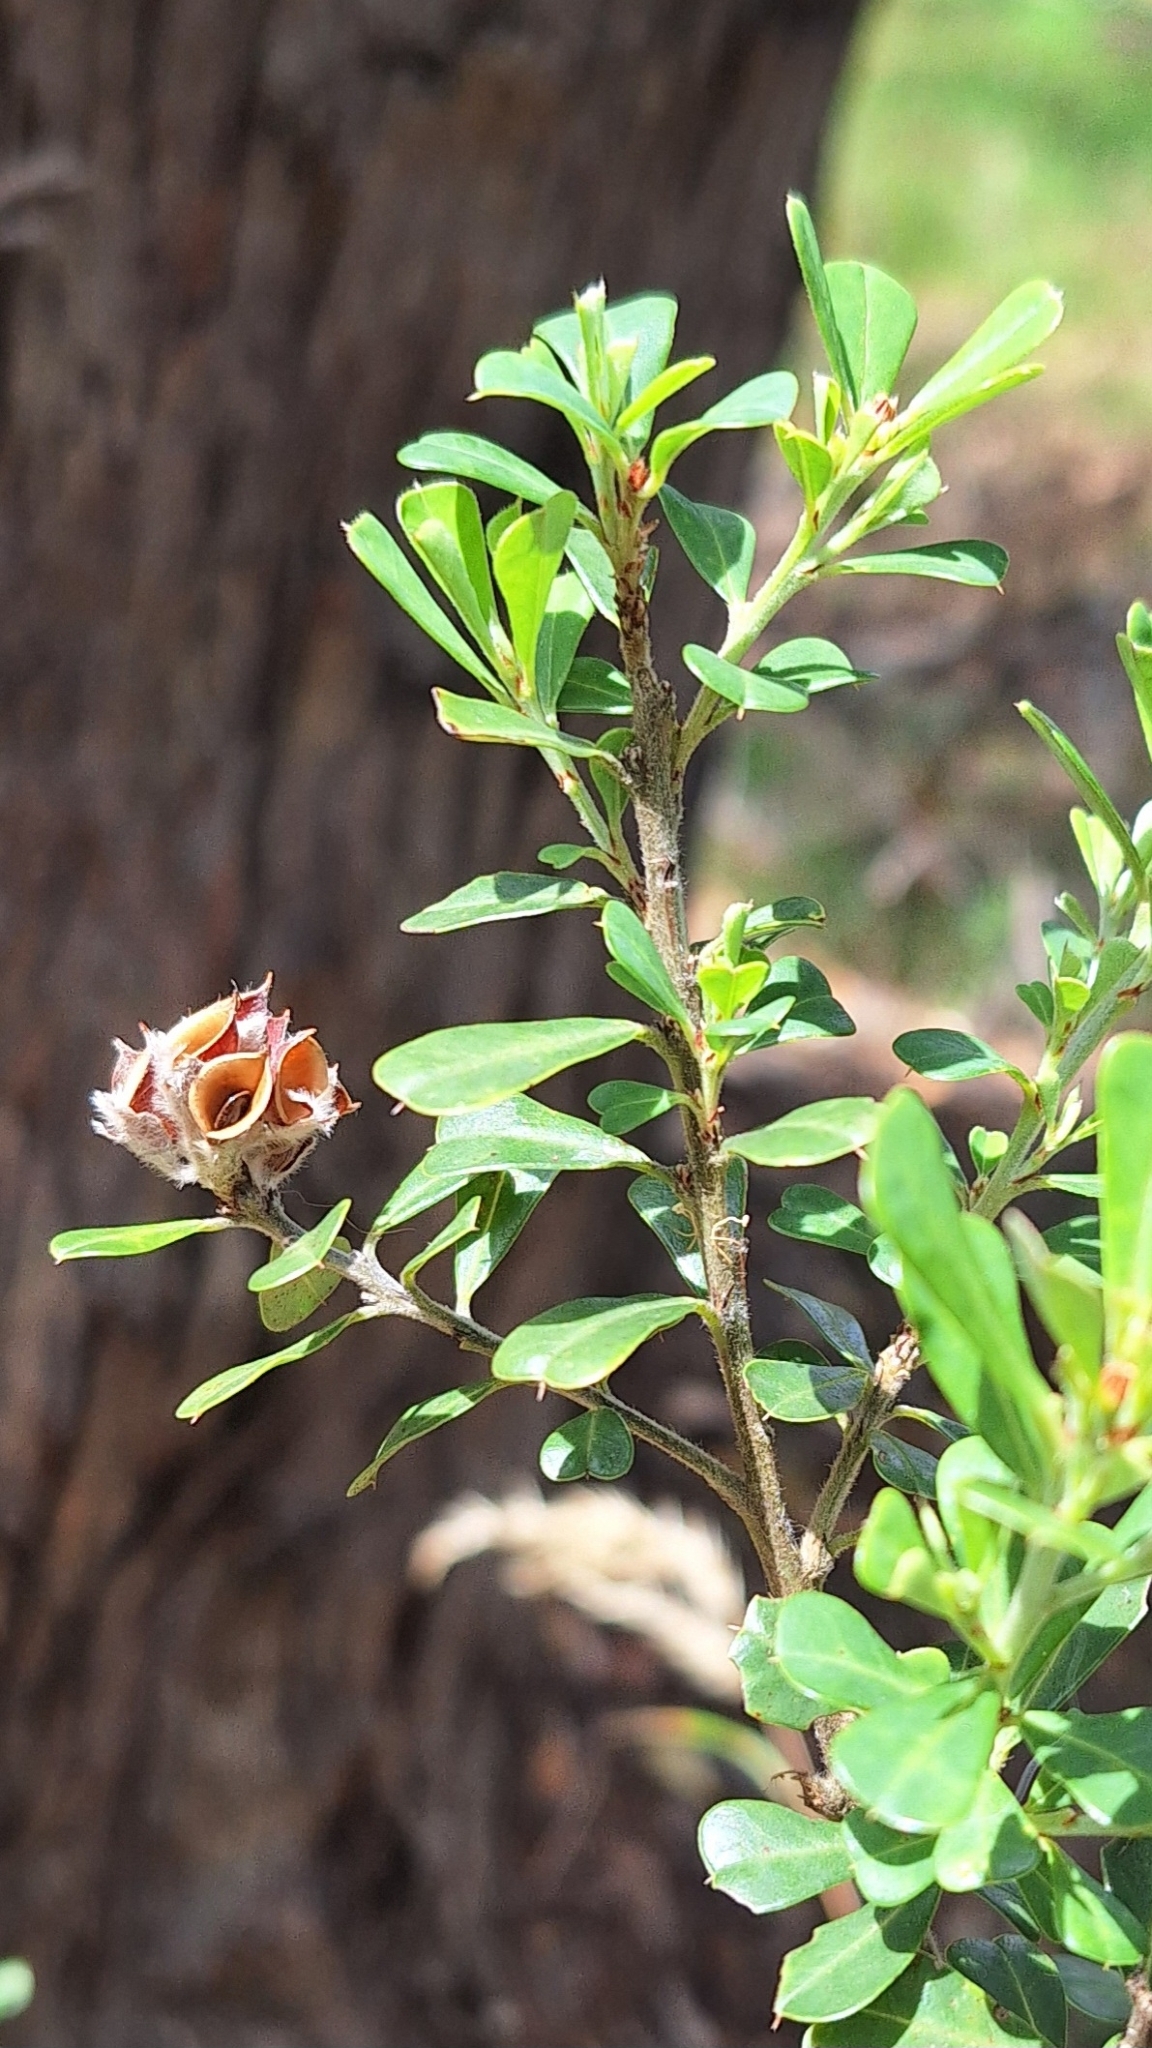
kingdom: Plantae
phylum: Tracheophyta
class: Magnoliopsida
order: Fabales
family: Fabaceae
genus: Pultenaea
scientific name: Pultenaea daphnoides
